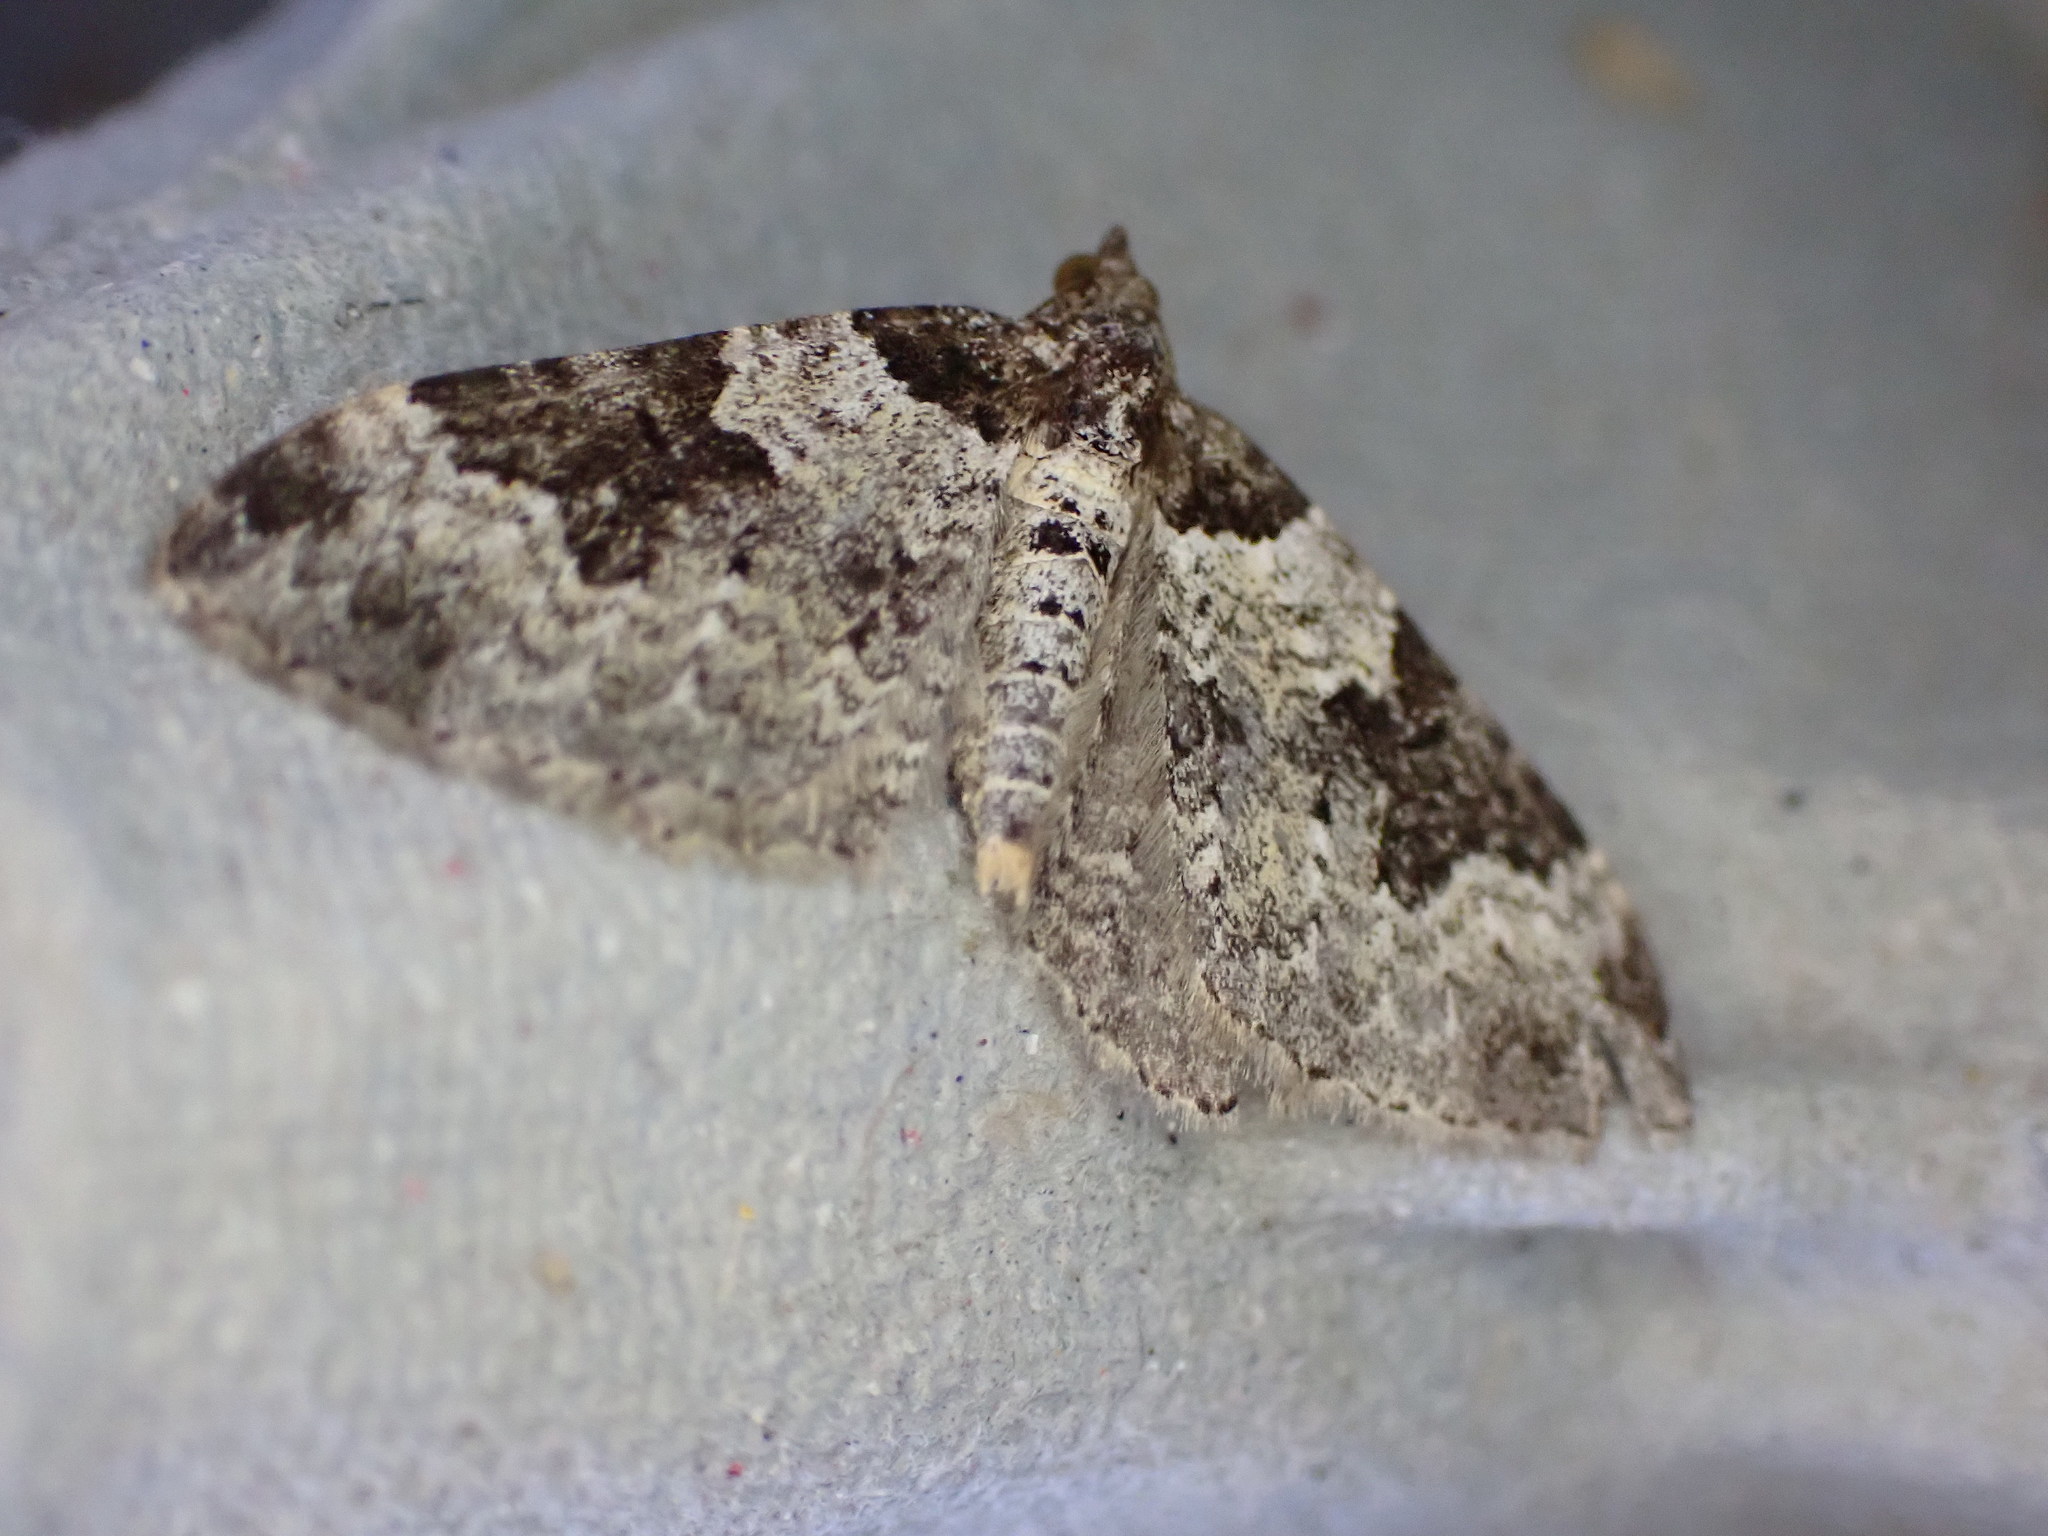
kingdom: Animalia
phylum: Arthropoda
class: Insecta
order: Lepidoptera
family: Geometridae
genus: Xanthorhoe
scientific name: Xanthorhoe fluctuata
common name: Garden carpet
